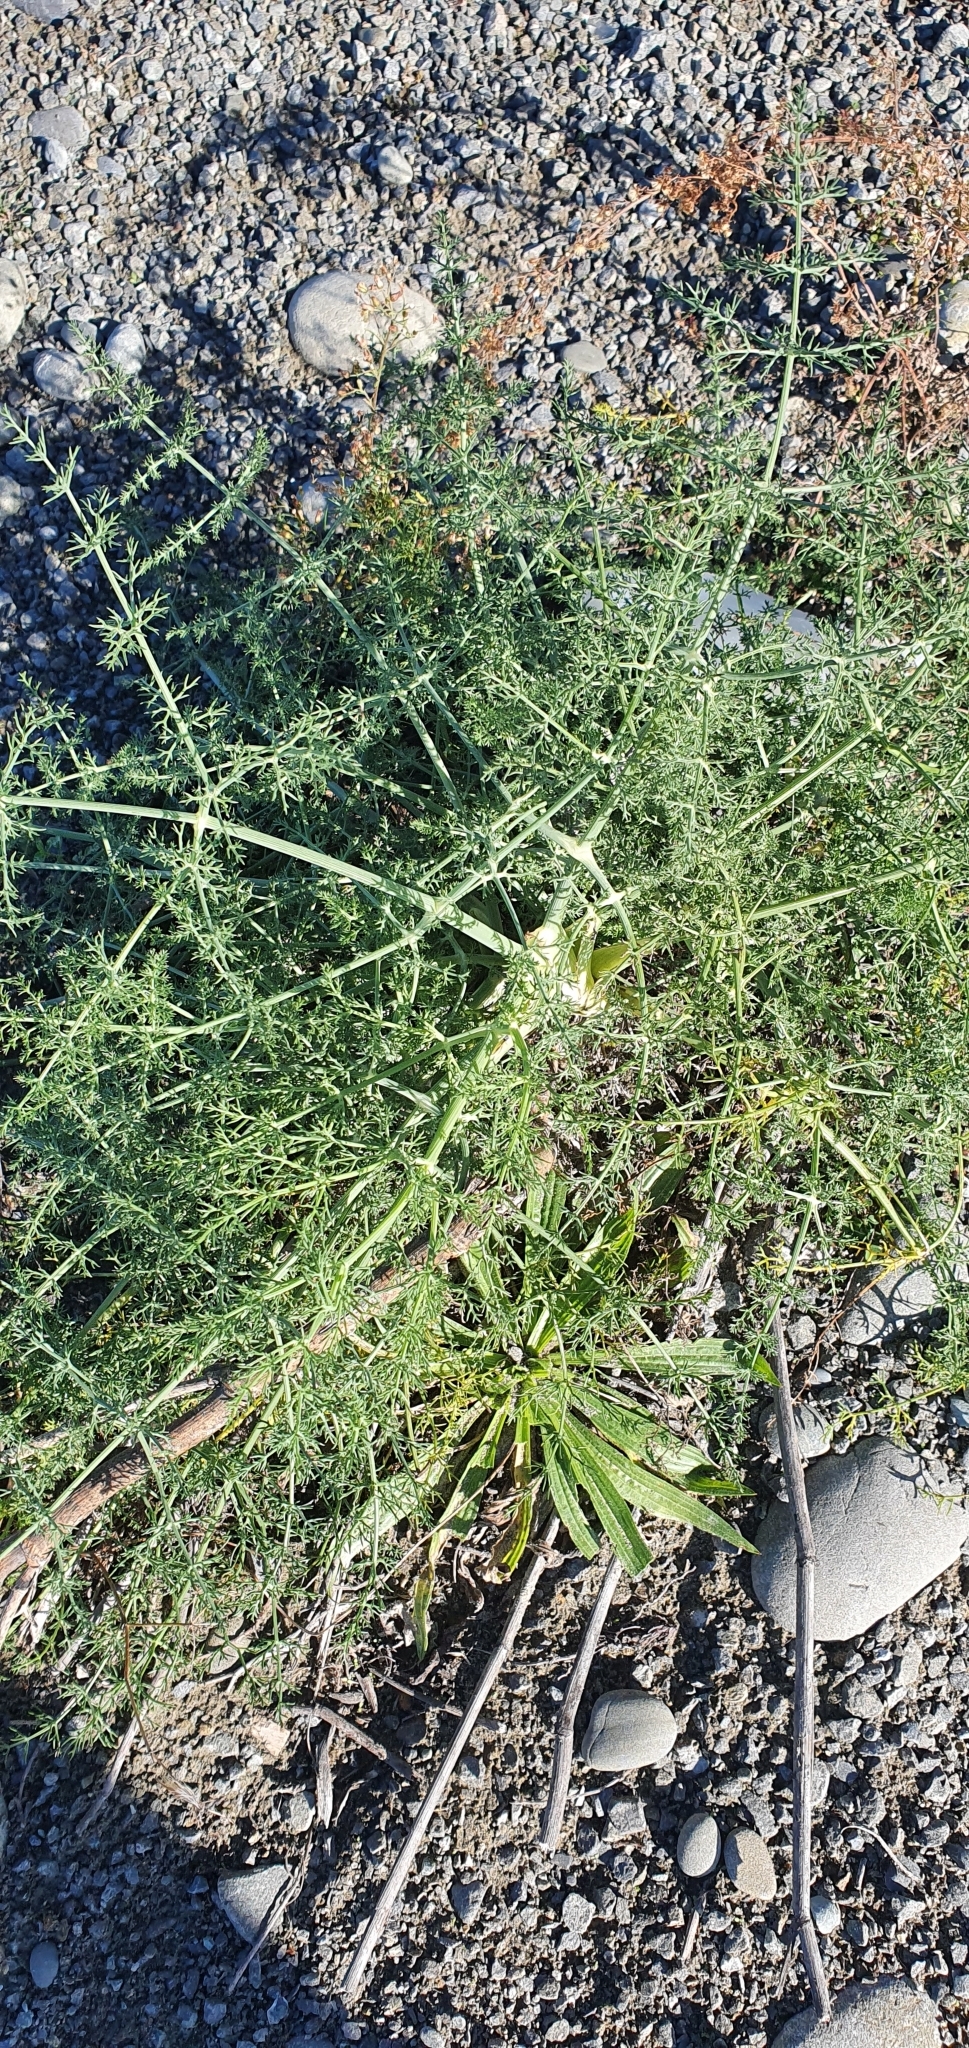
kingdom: Plantae
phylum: Tracheophyta
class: Magnoliopsida
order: Apiales
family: Apiaceae
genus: Foeniculum
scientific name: Foeniculum vulgare
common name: Fennel
